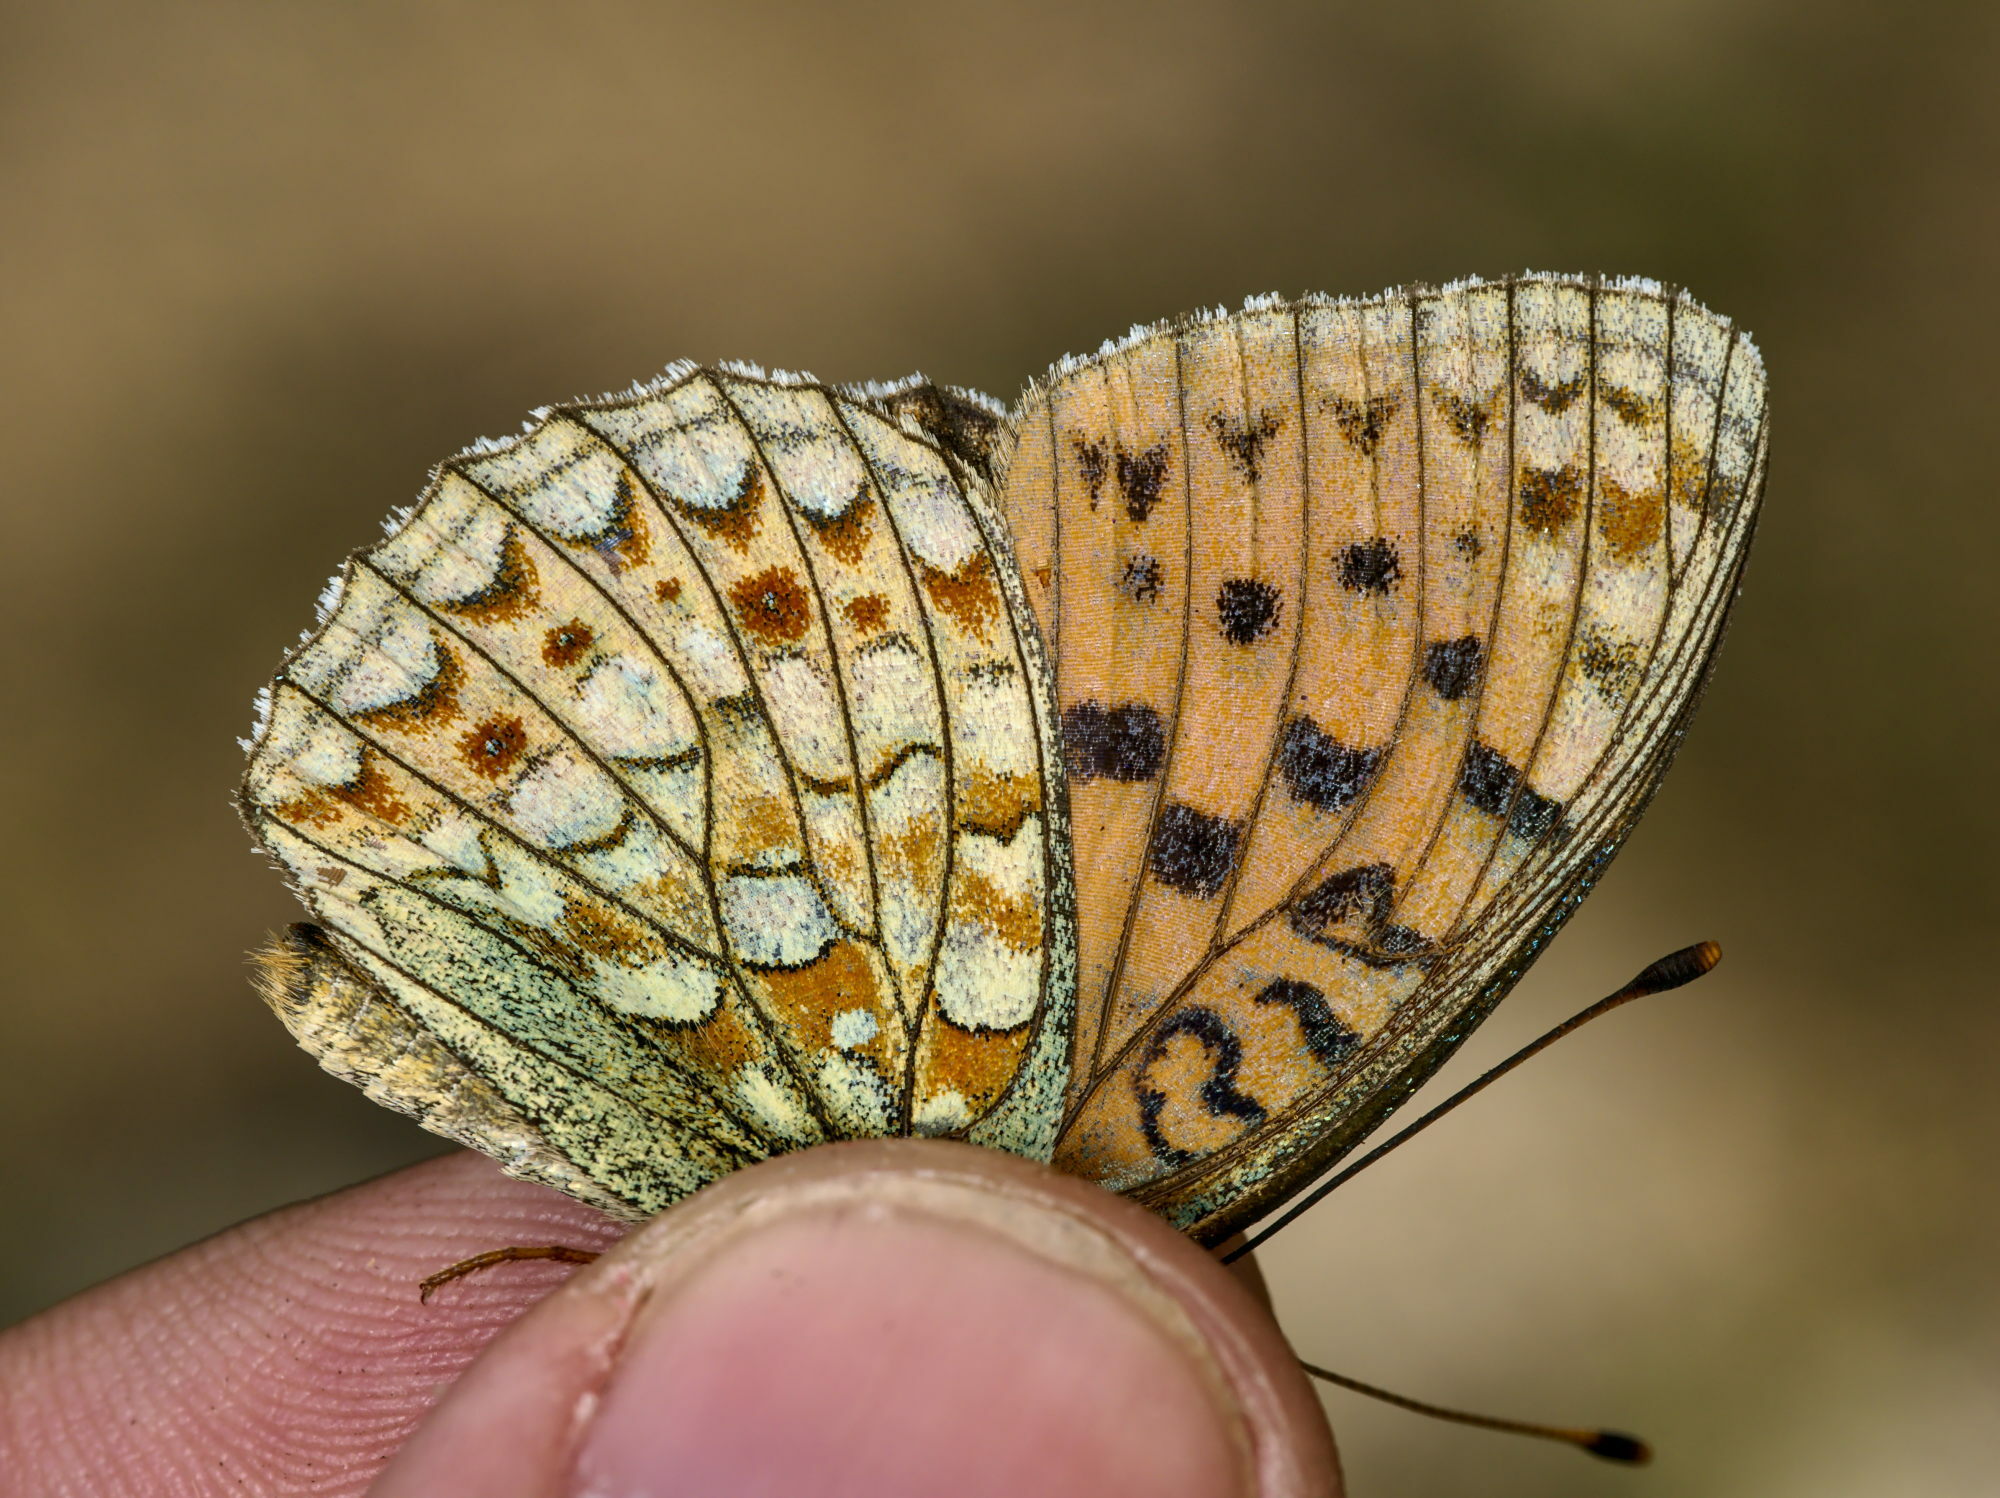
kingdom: Animalia
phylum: Arthropoda
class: Insecta
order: Lepidoptera
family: Nymphalidae
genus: Fabriciana
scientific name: Fabriciana niobe
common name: Niobe fritillary
